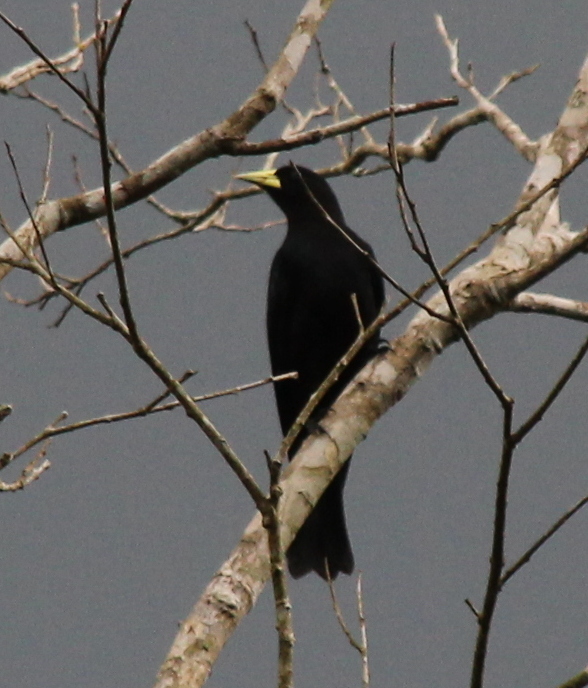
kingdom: Animalia
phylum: Chordata
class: Aves
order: Passeriformes
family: Icteridae
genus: Cacicus
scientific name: Cacicus haemorrhous
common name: Red-rumped cacique
